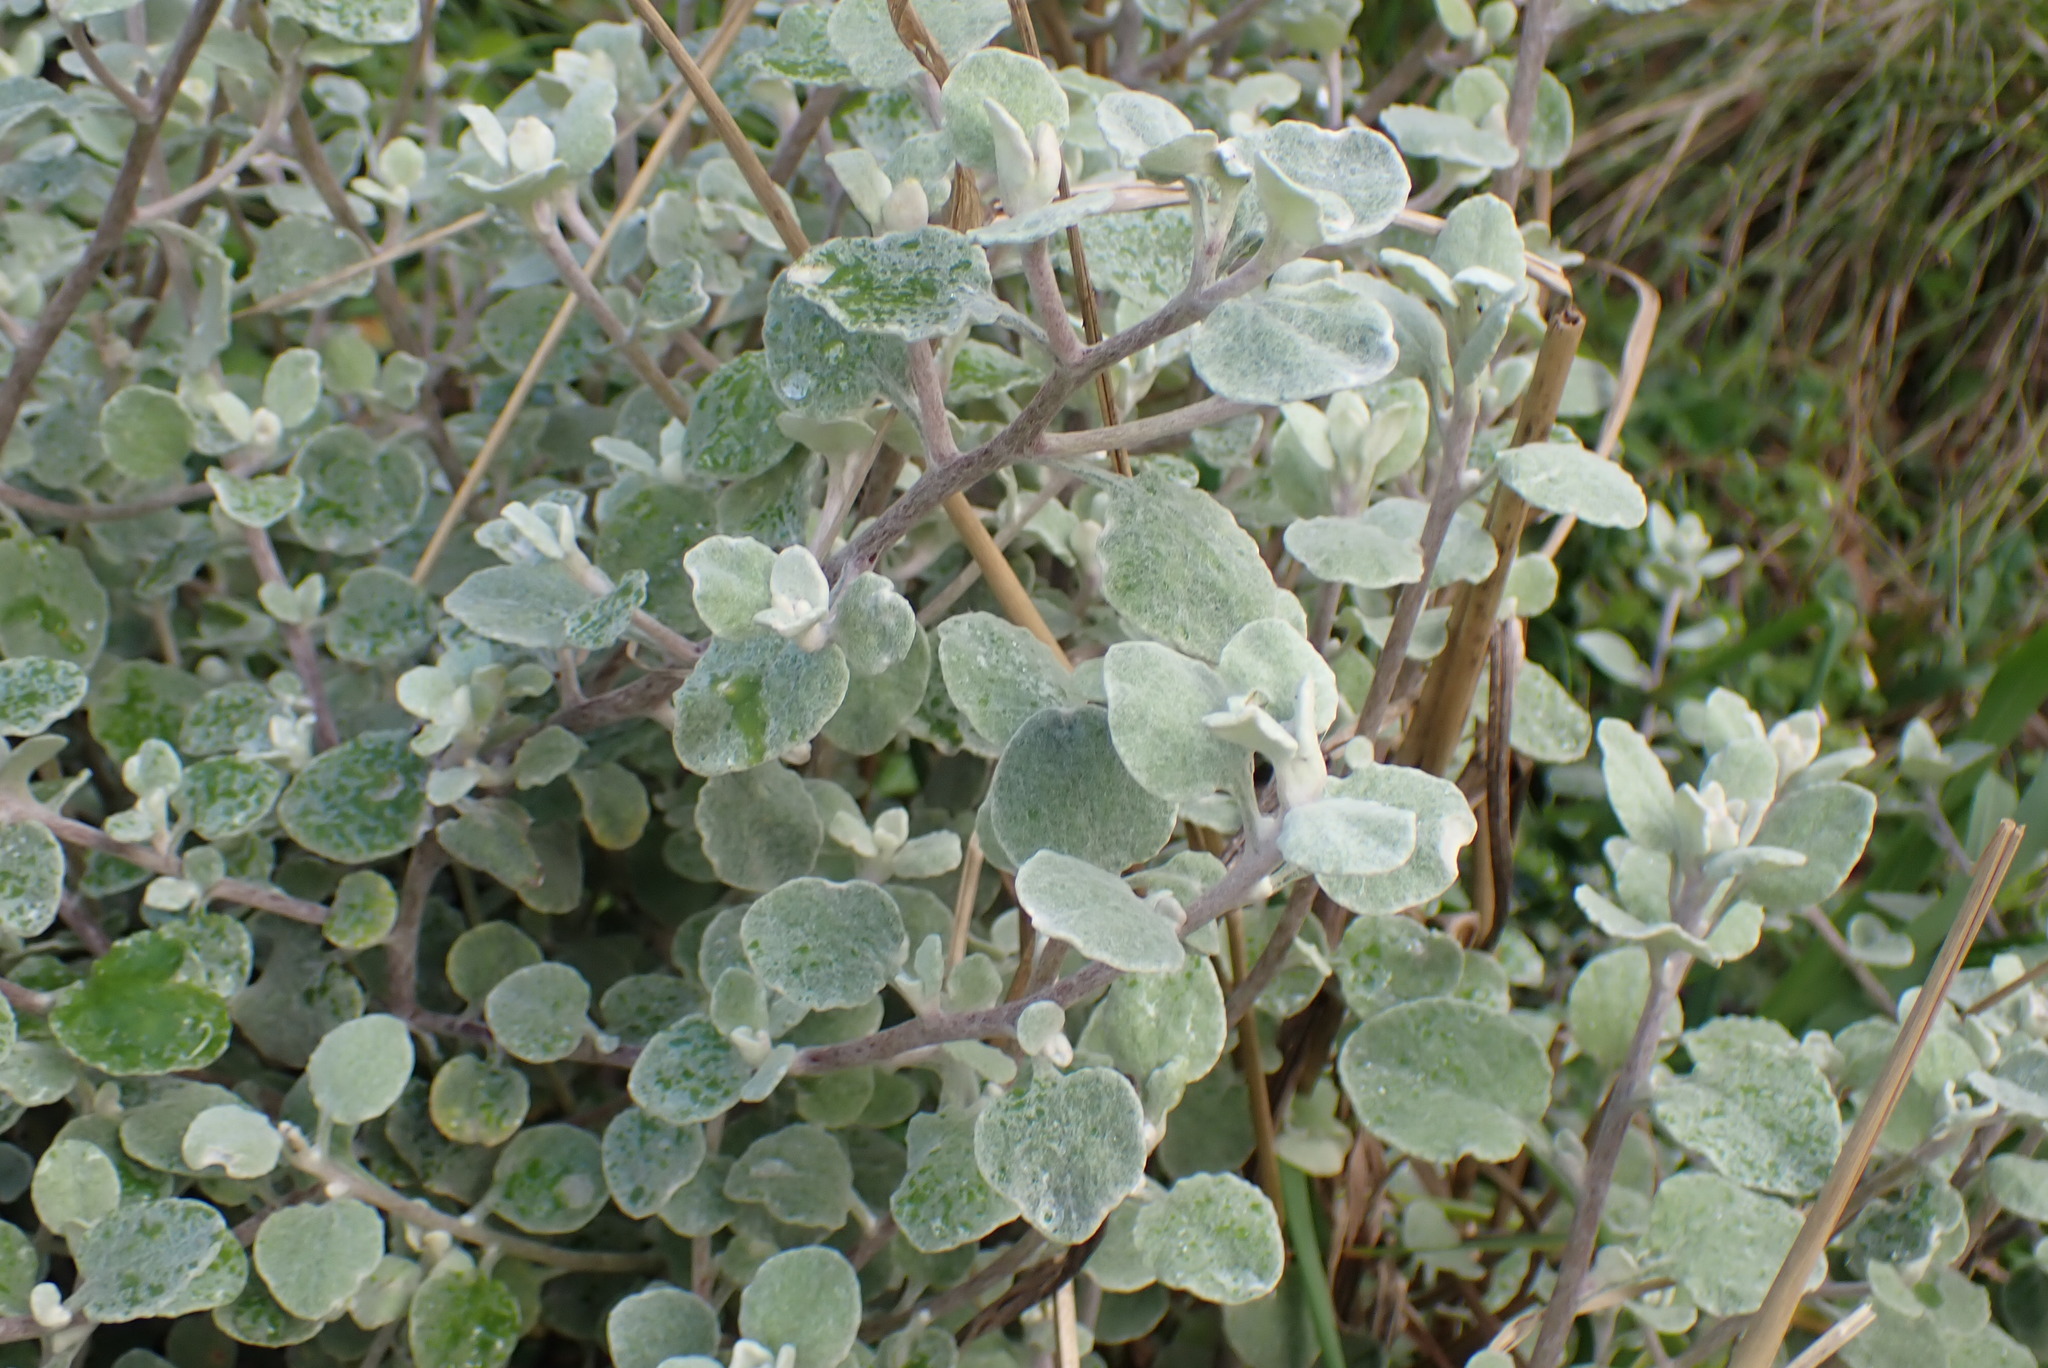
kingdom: Plantae
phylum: Tracheophyta
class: Magnoliopsida
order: Asterales
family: Asteraceae
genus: Helichrysum
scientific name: Helichrysum petiolare
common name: Licorice-plant
